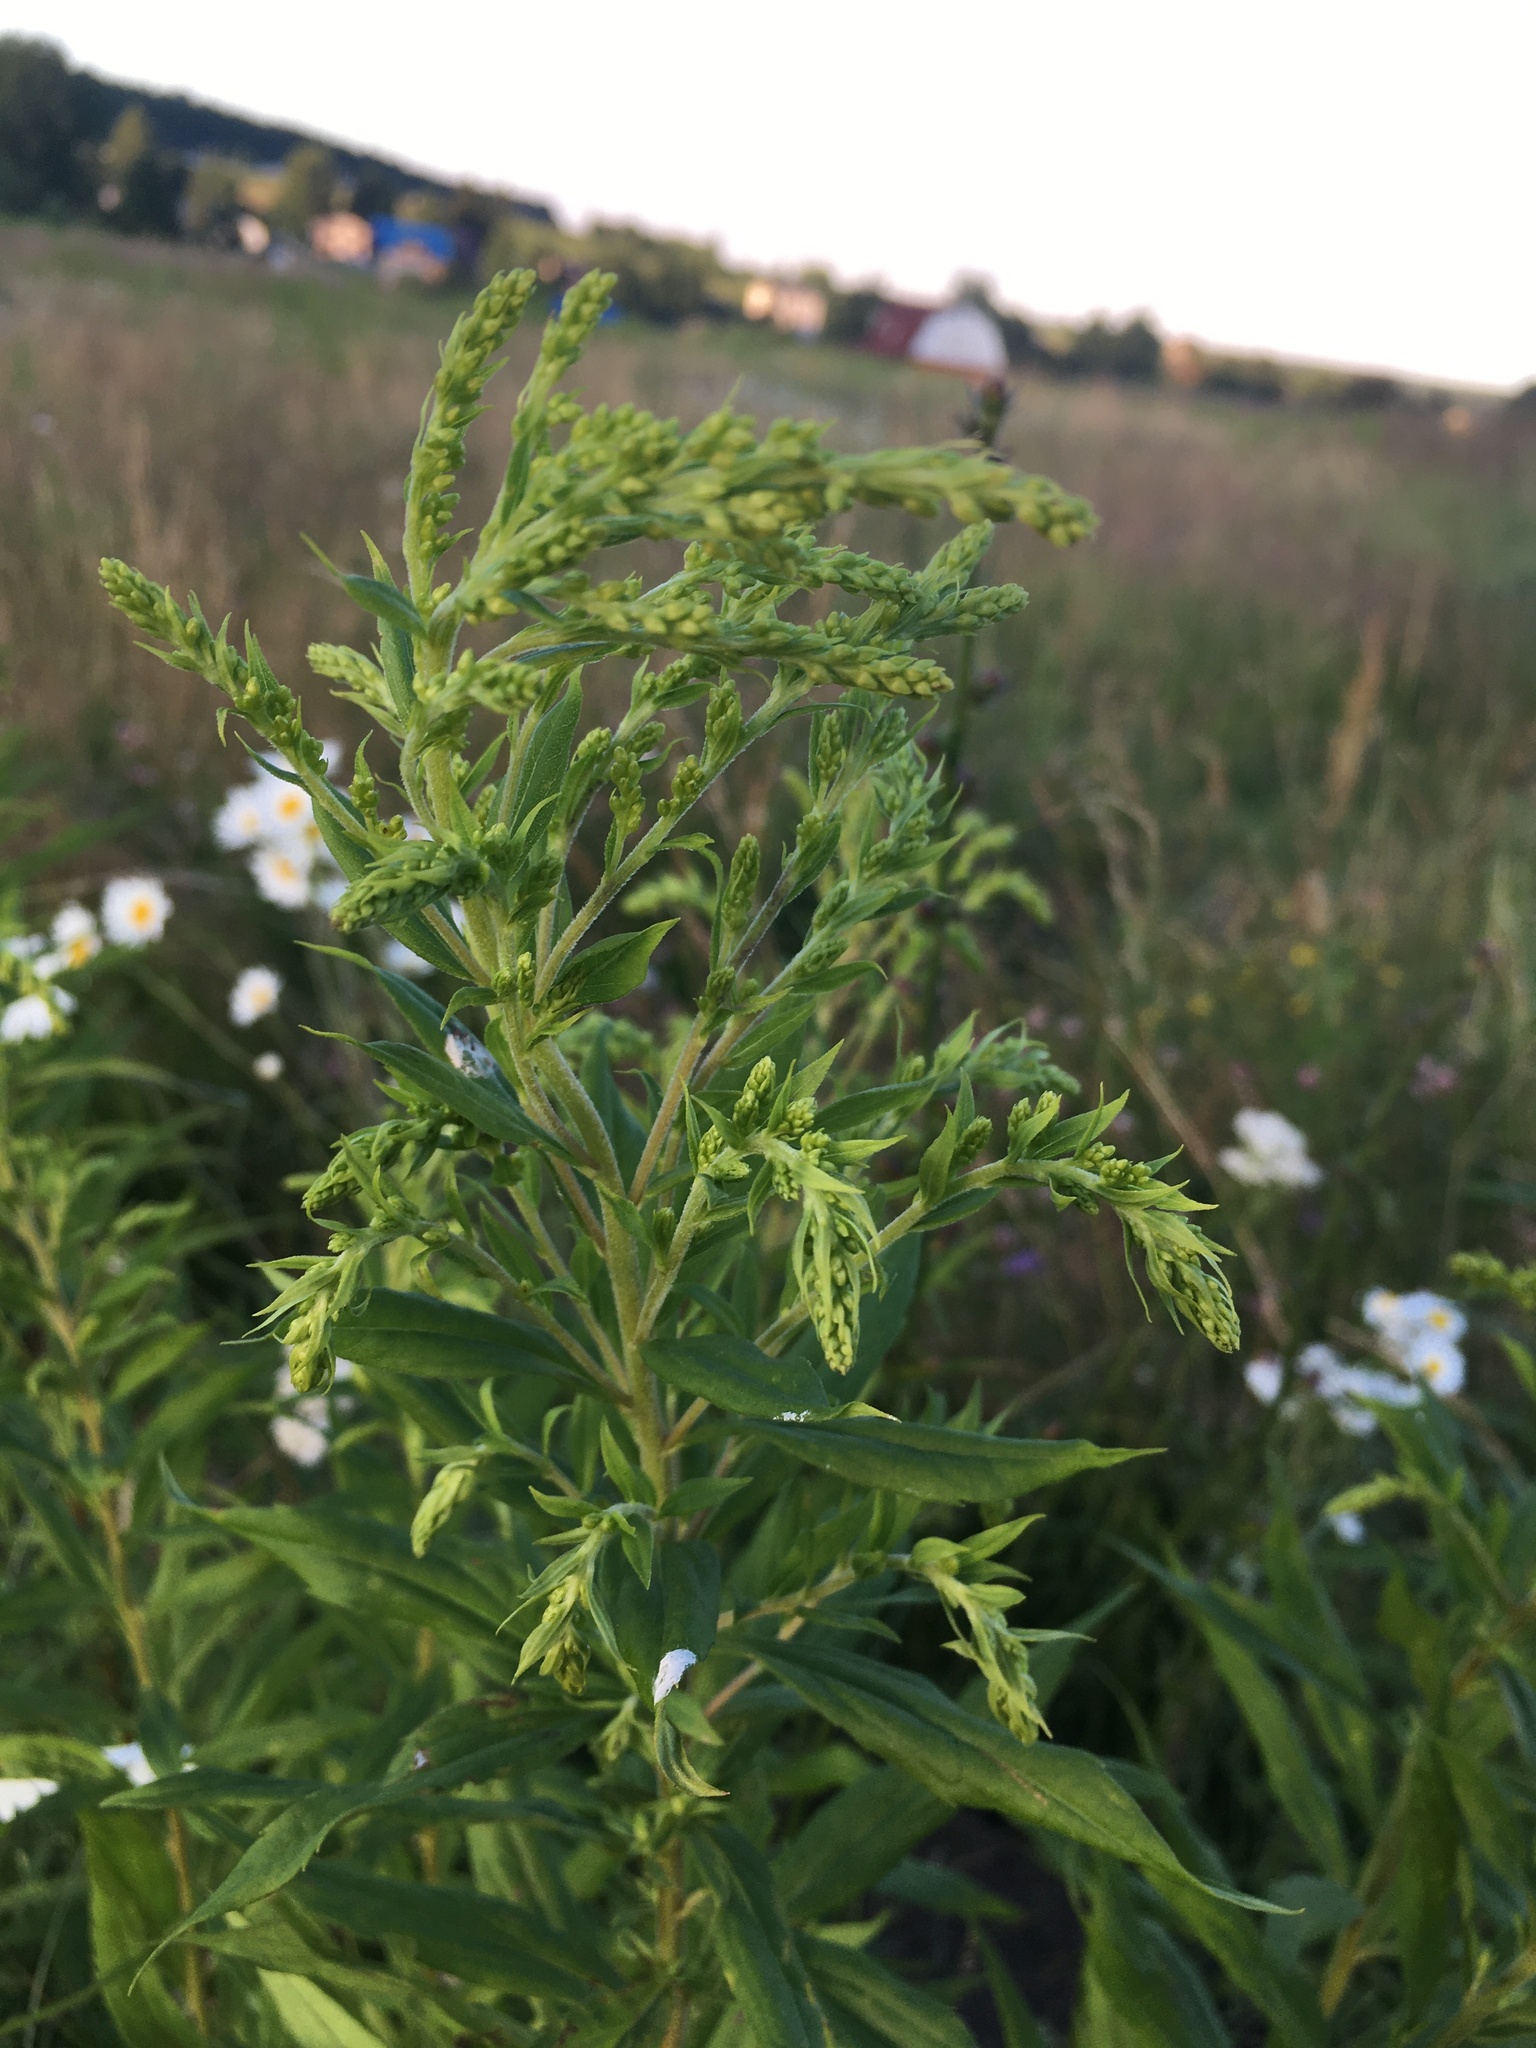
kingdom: Plantae
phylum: Tracheophyta
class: Magnoliopsida
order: Asterales
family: Asteraceae
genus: Solidago
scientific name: Solidago canadensis
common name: Canada goldenrod
